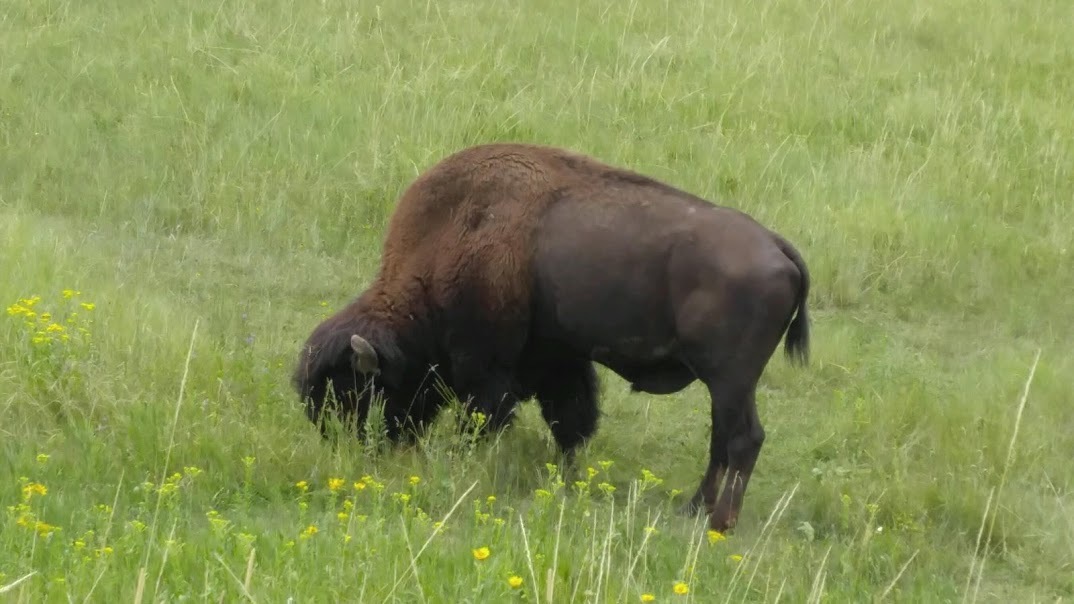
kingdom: Animalia
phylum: Chordata
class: Mammalia
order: Artiodactyla
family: Bovidae
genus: Bison
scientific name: Bison bison
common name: American bison
